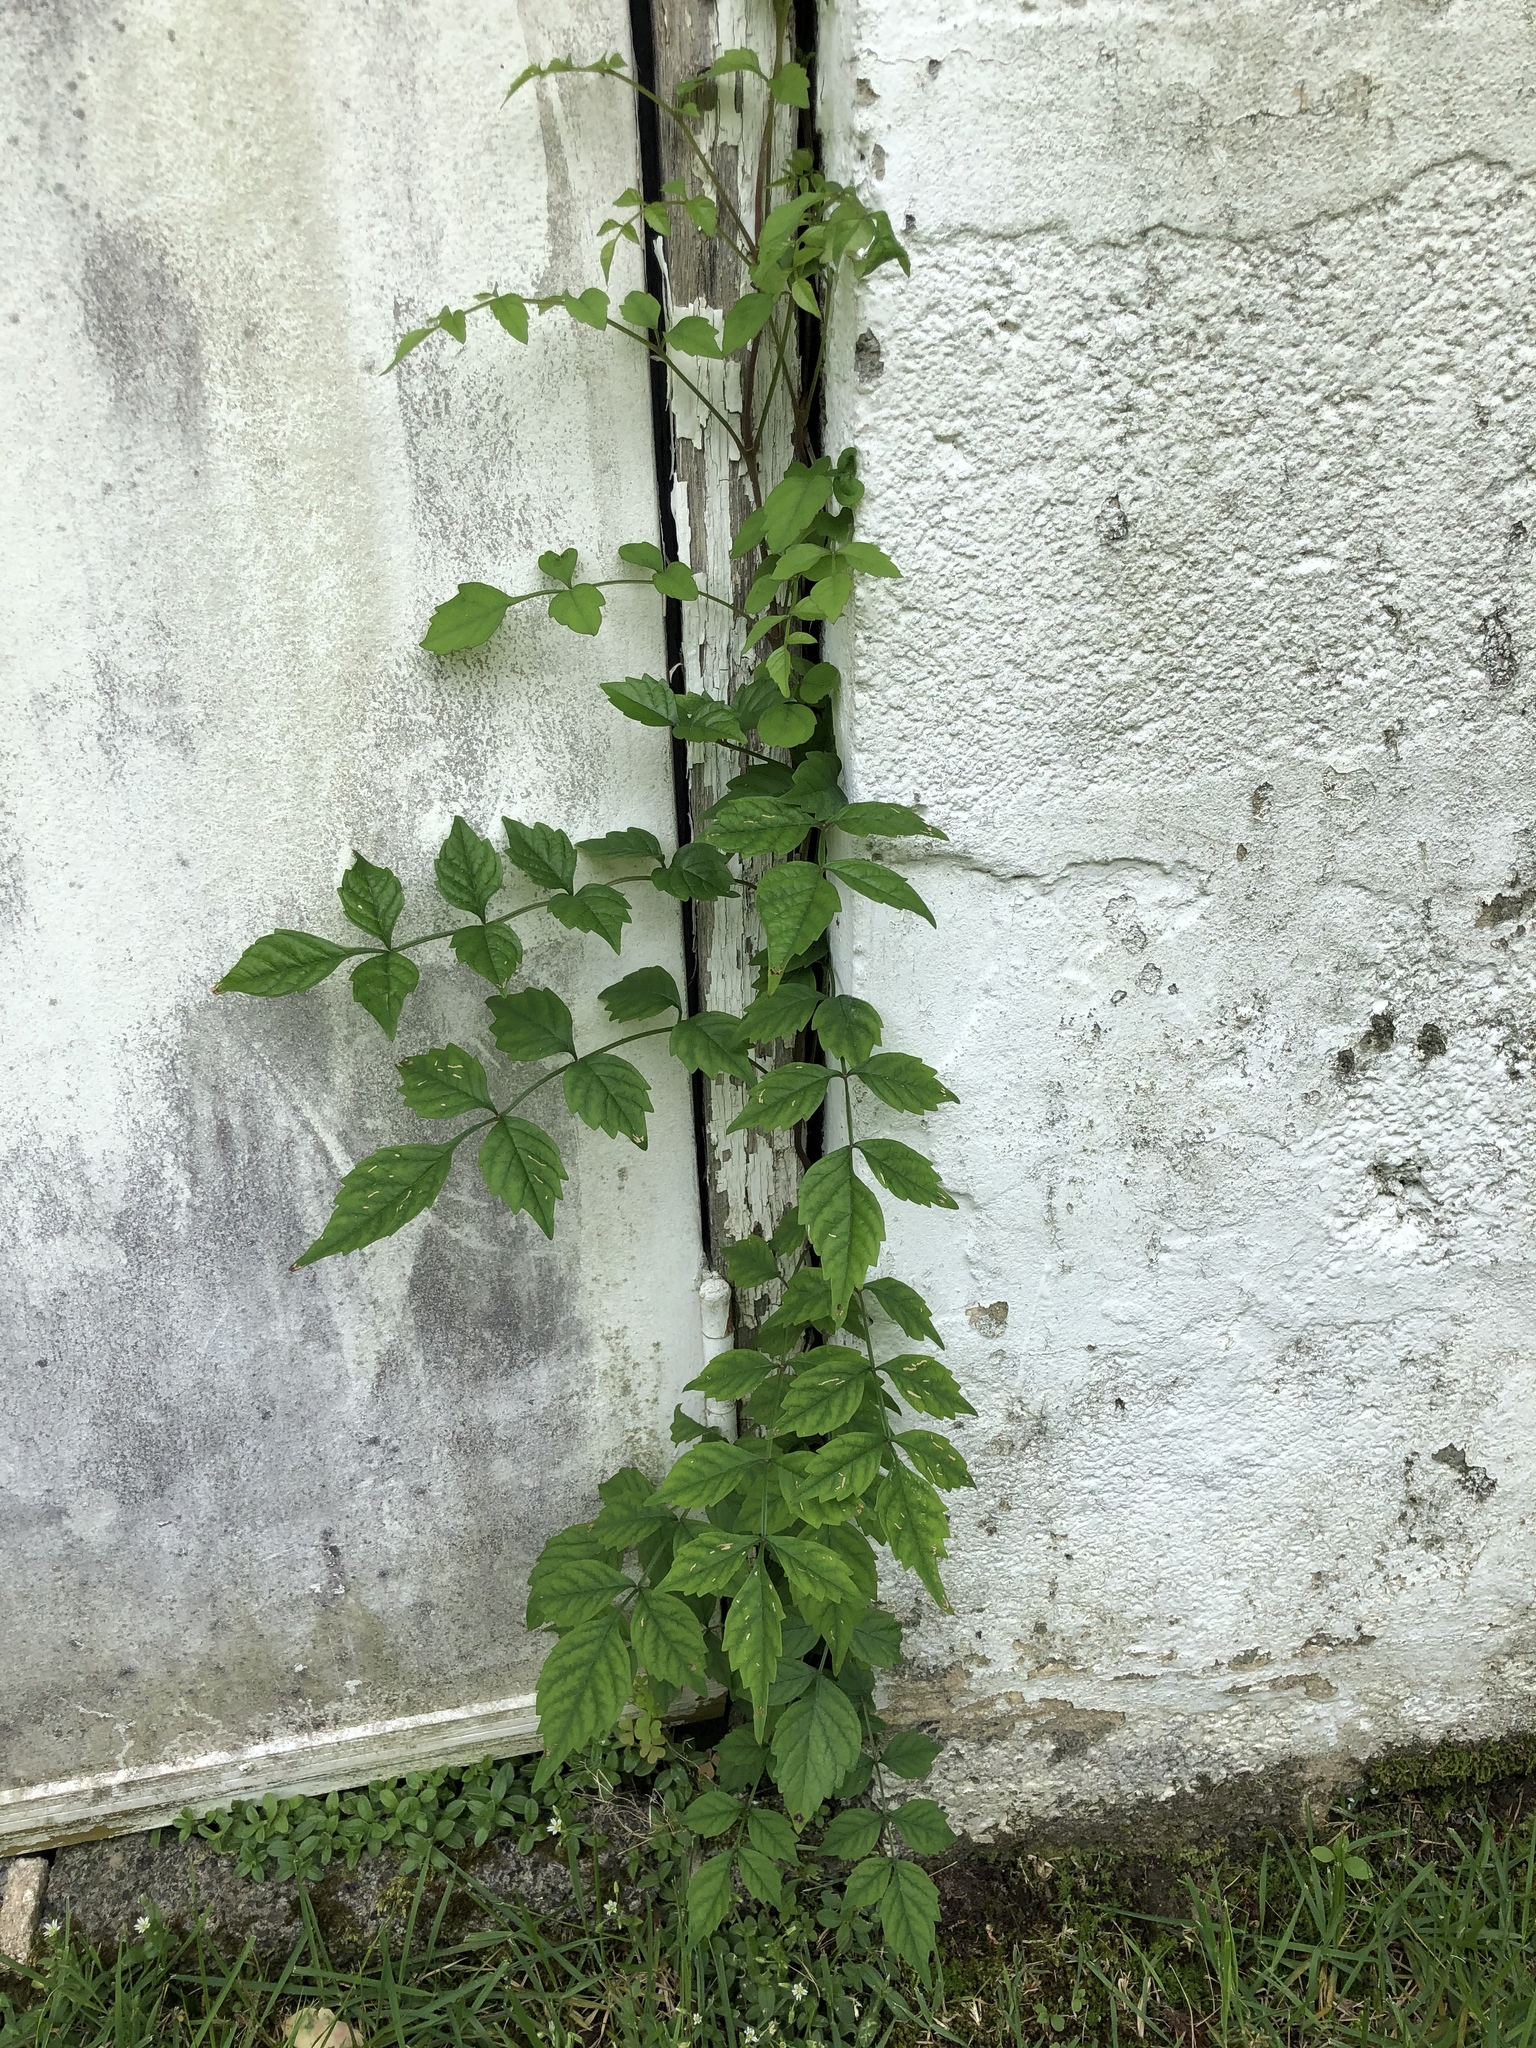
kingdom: Plantae
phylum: Tracheophyta
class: Magnoliopsida
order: Lamiales
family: Bignoniaceae
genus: Campsis
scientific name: Campsis radicans
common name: Trumpet-creeper
